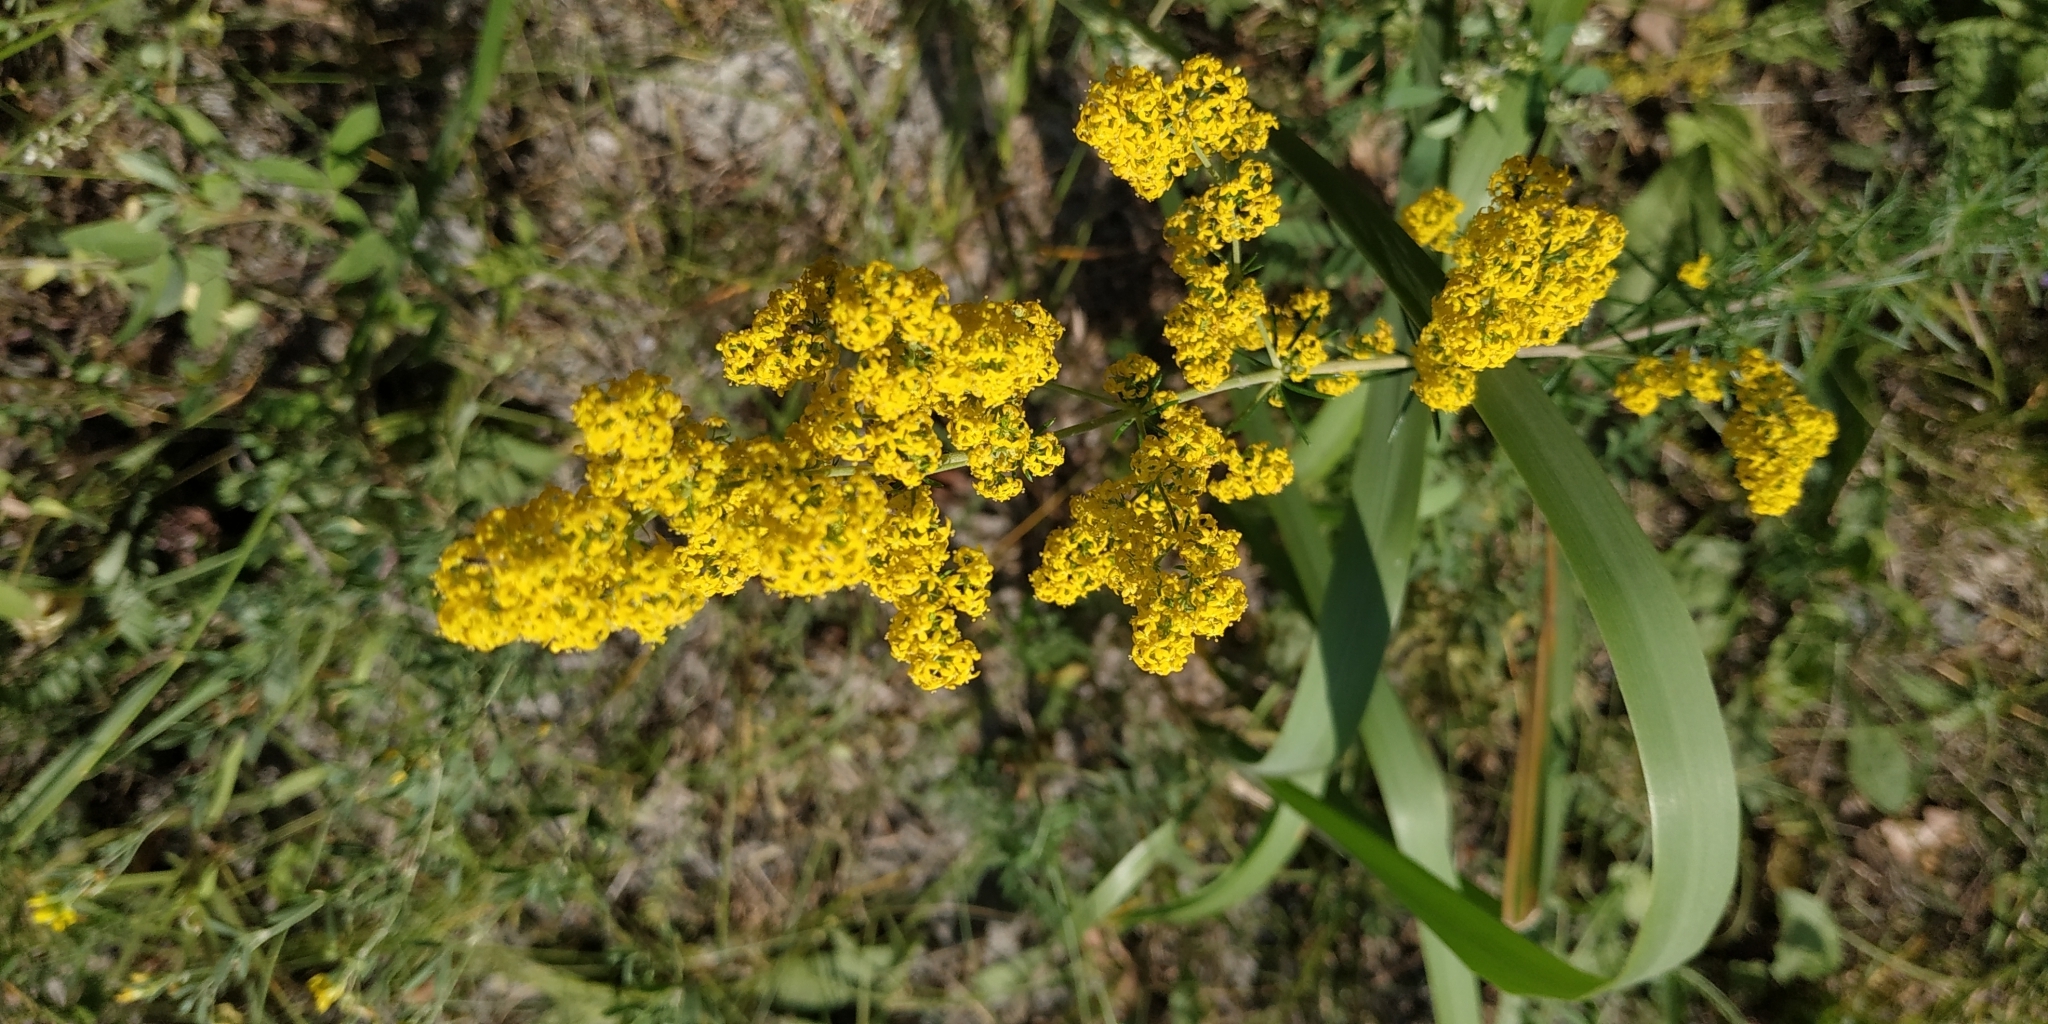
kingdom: Plantae
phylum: Tracheophyta
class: Magnoliopsida
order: Gentianales
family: Rubiaceae
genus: Galium
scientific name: Galium verum
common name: Lady's bedstraw
